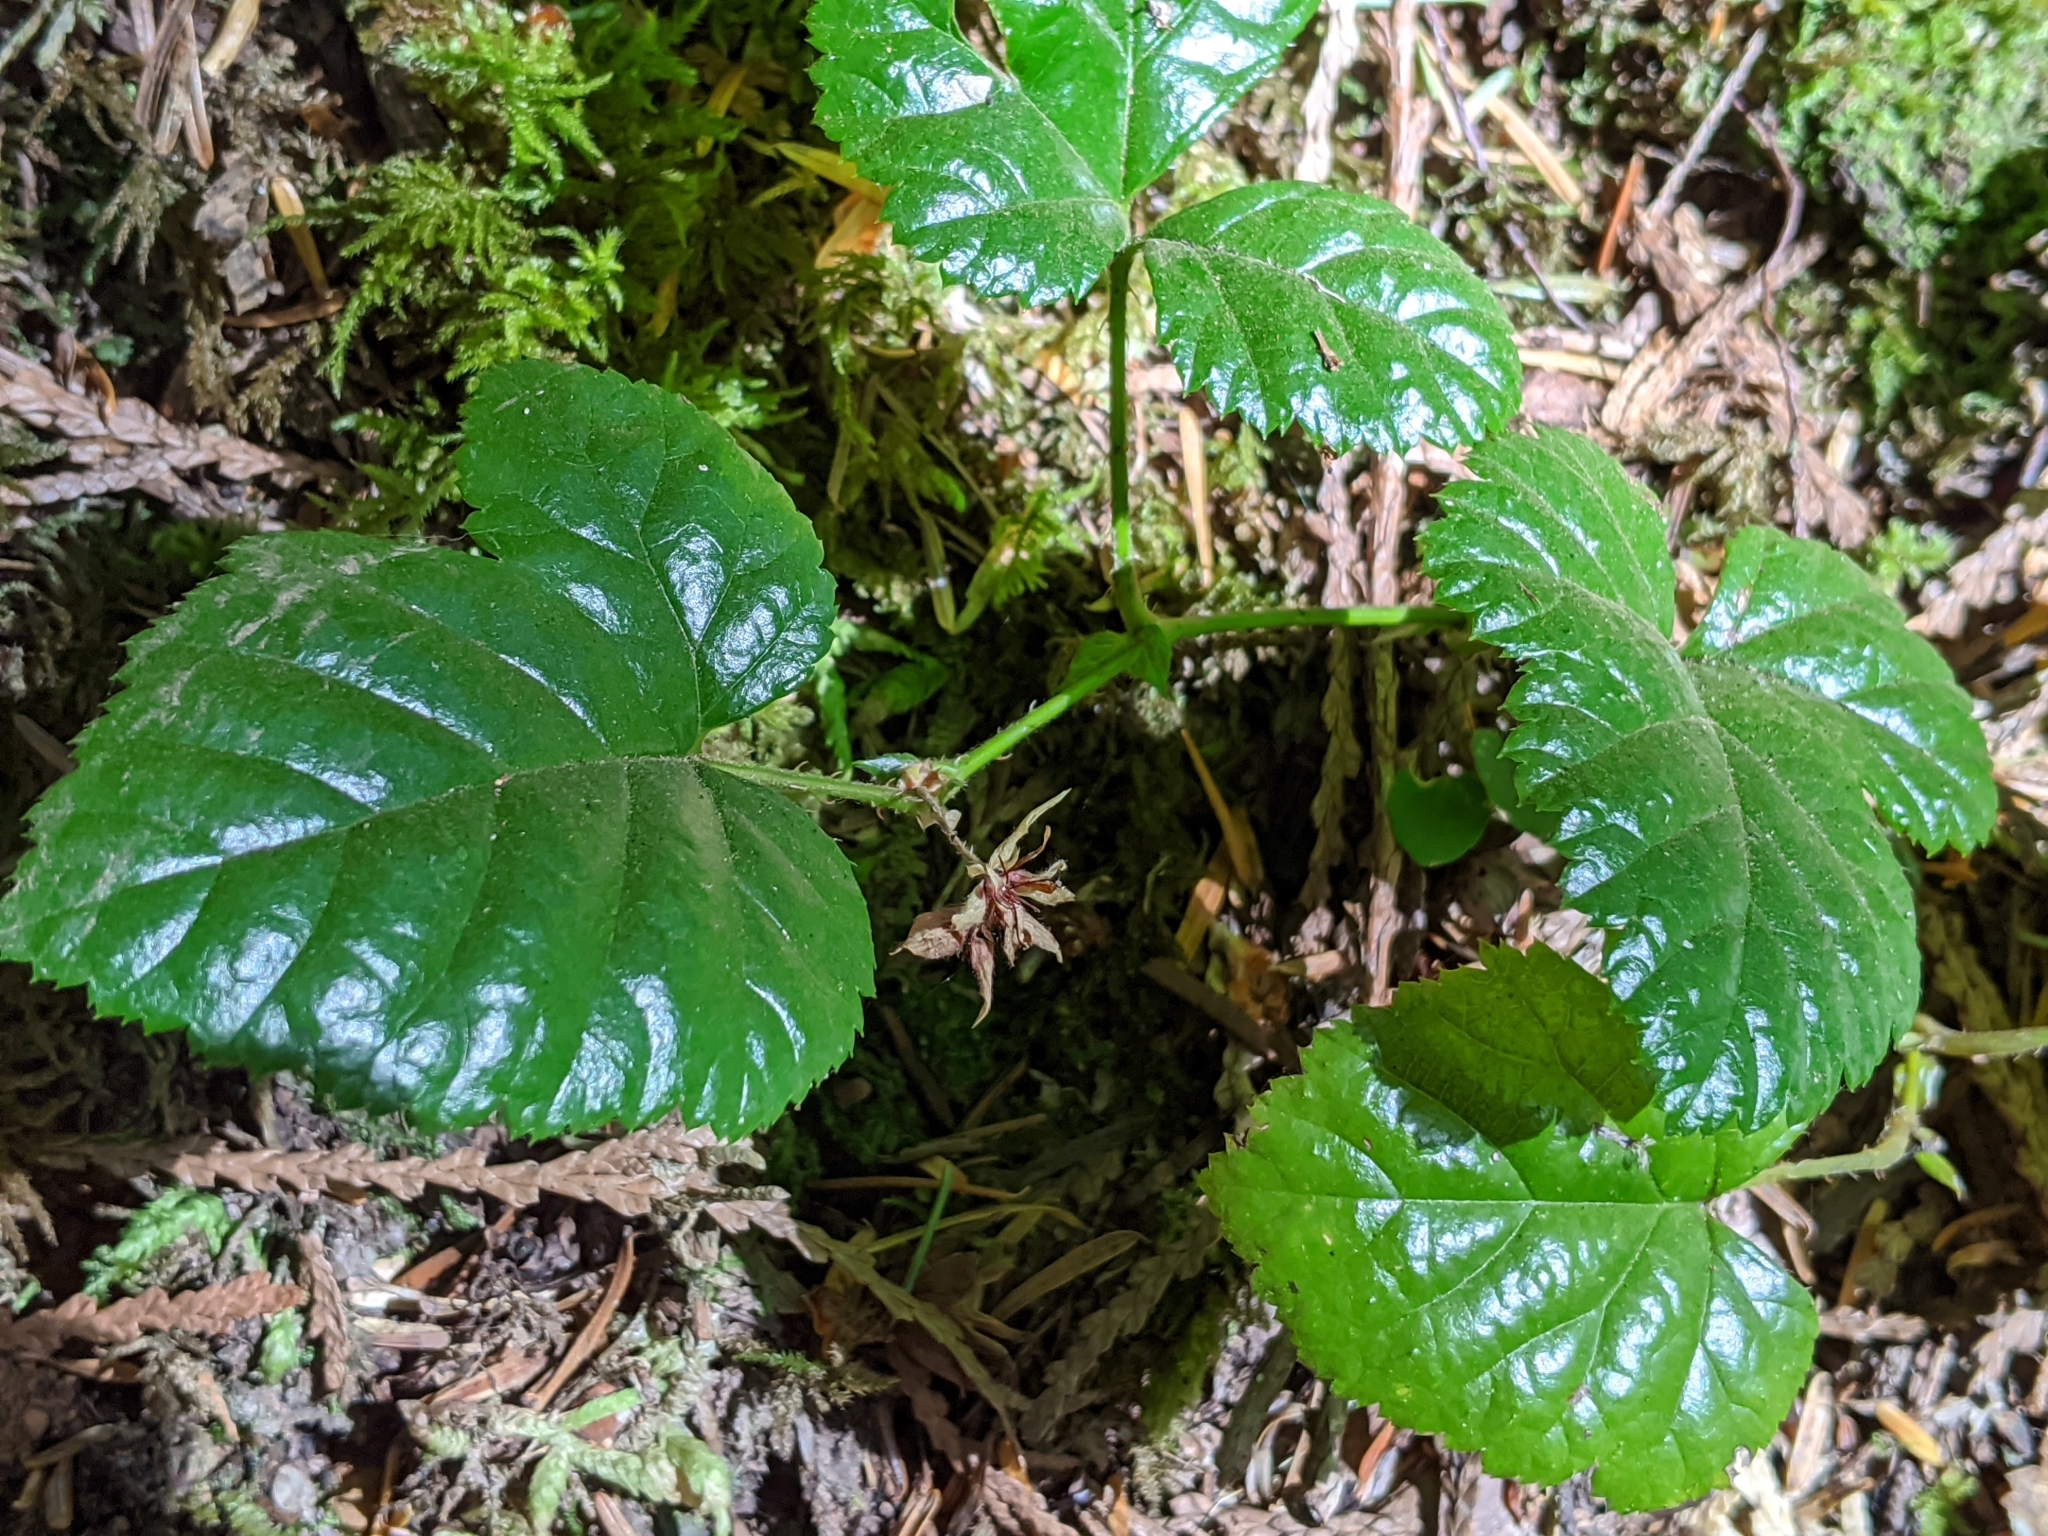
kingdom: Plantae
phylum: Tracheophyta
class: Magnoliopsida
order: Rosales
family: Rosaceae
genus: Rubus
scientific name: Rubus nivalis
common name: Dwarf snow bramble
